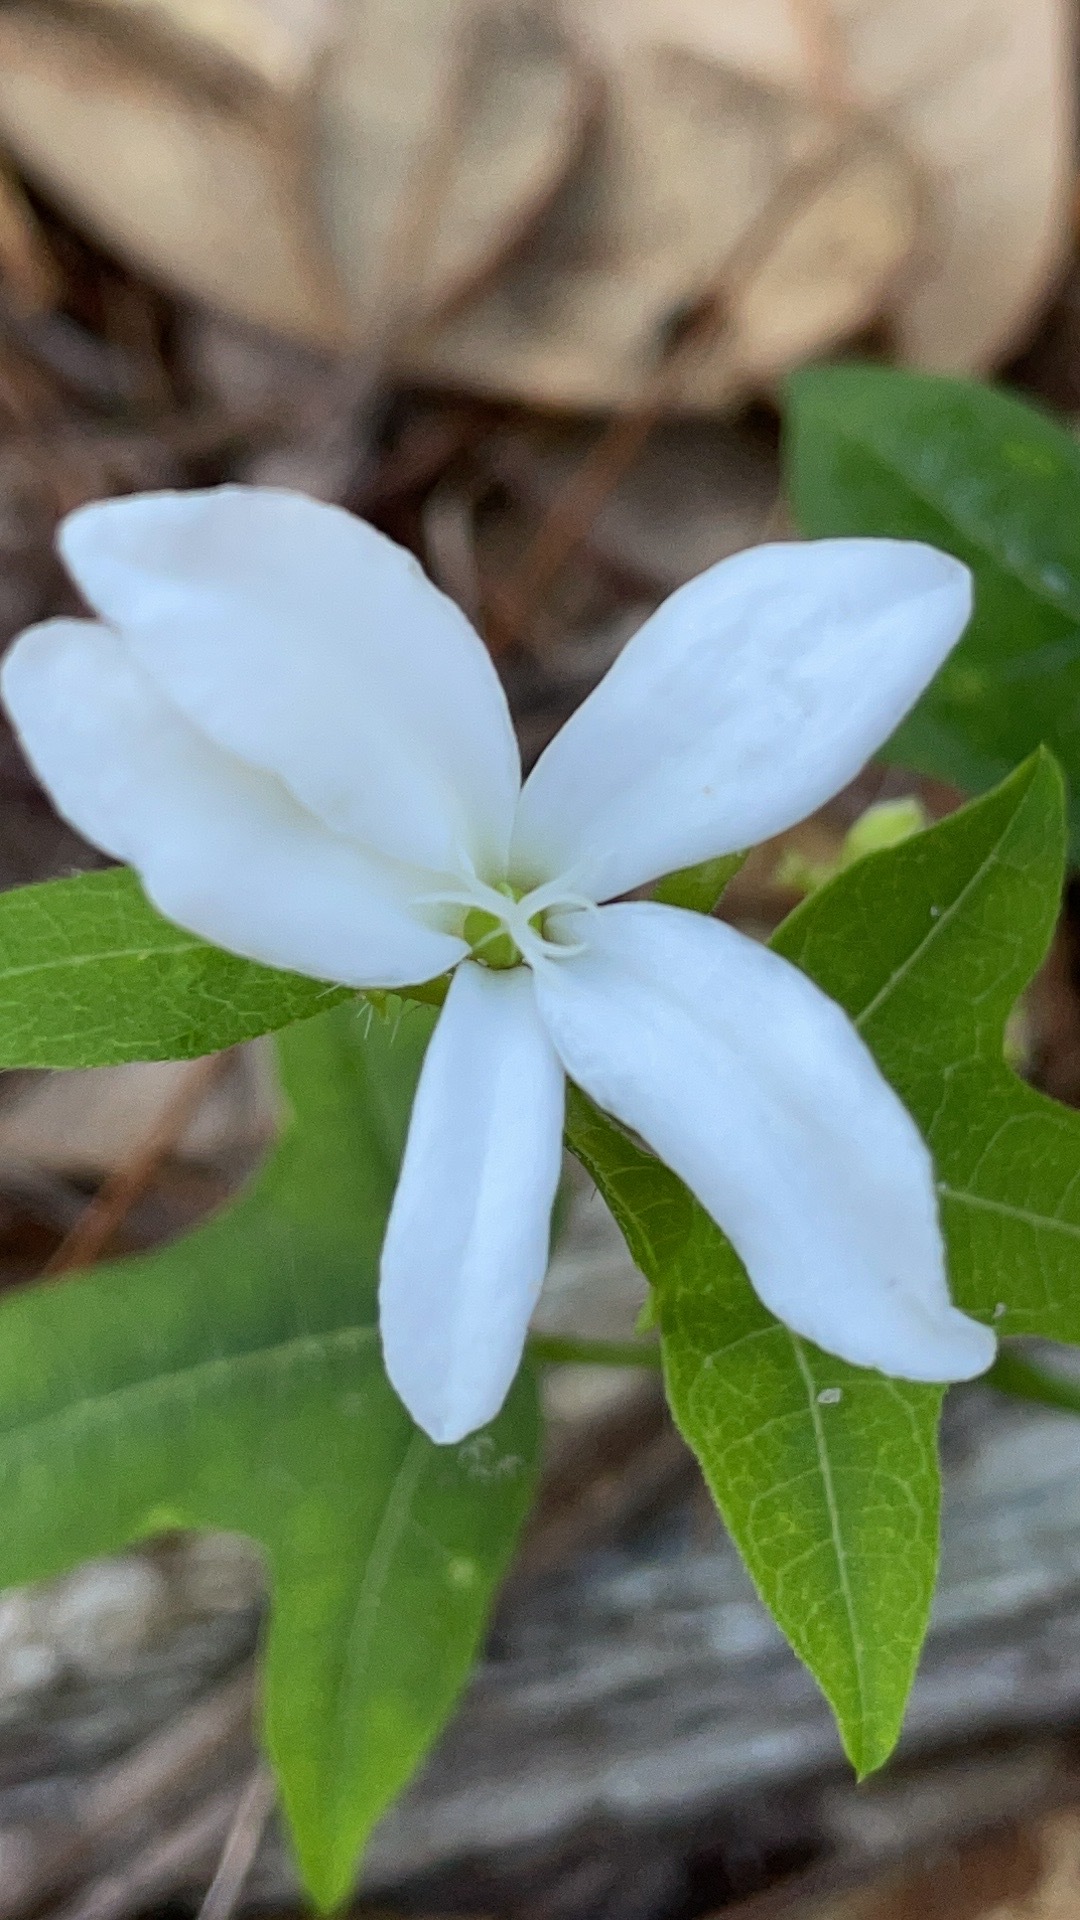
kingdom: Plantae
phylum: Tracheophyta
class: Magnoliopsida
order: Malpighiales
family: Euphorbiaceae
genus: Cnidoscolus
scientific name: Cnidoscolus stimulosus
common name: Bull-nettle
